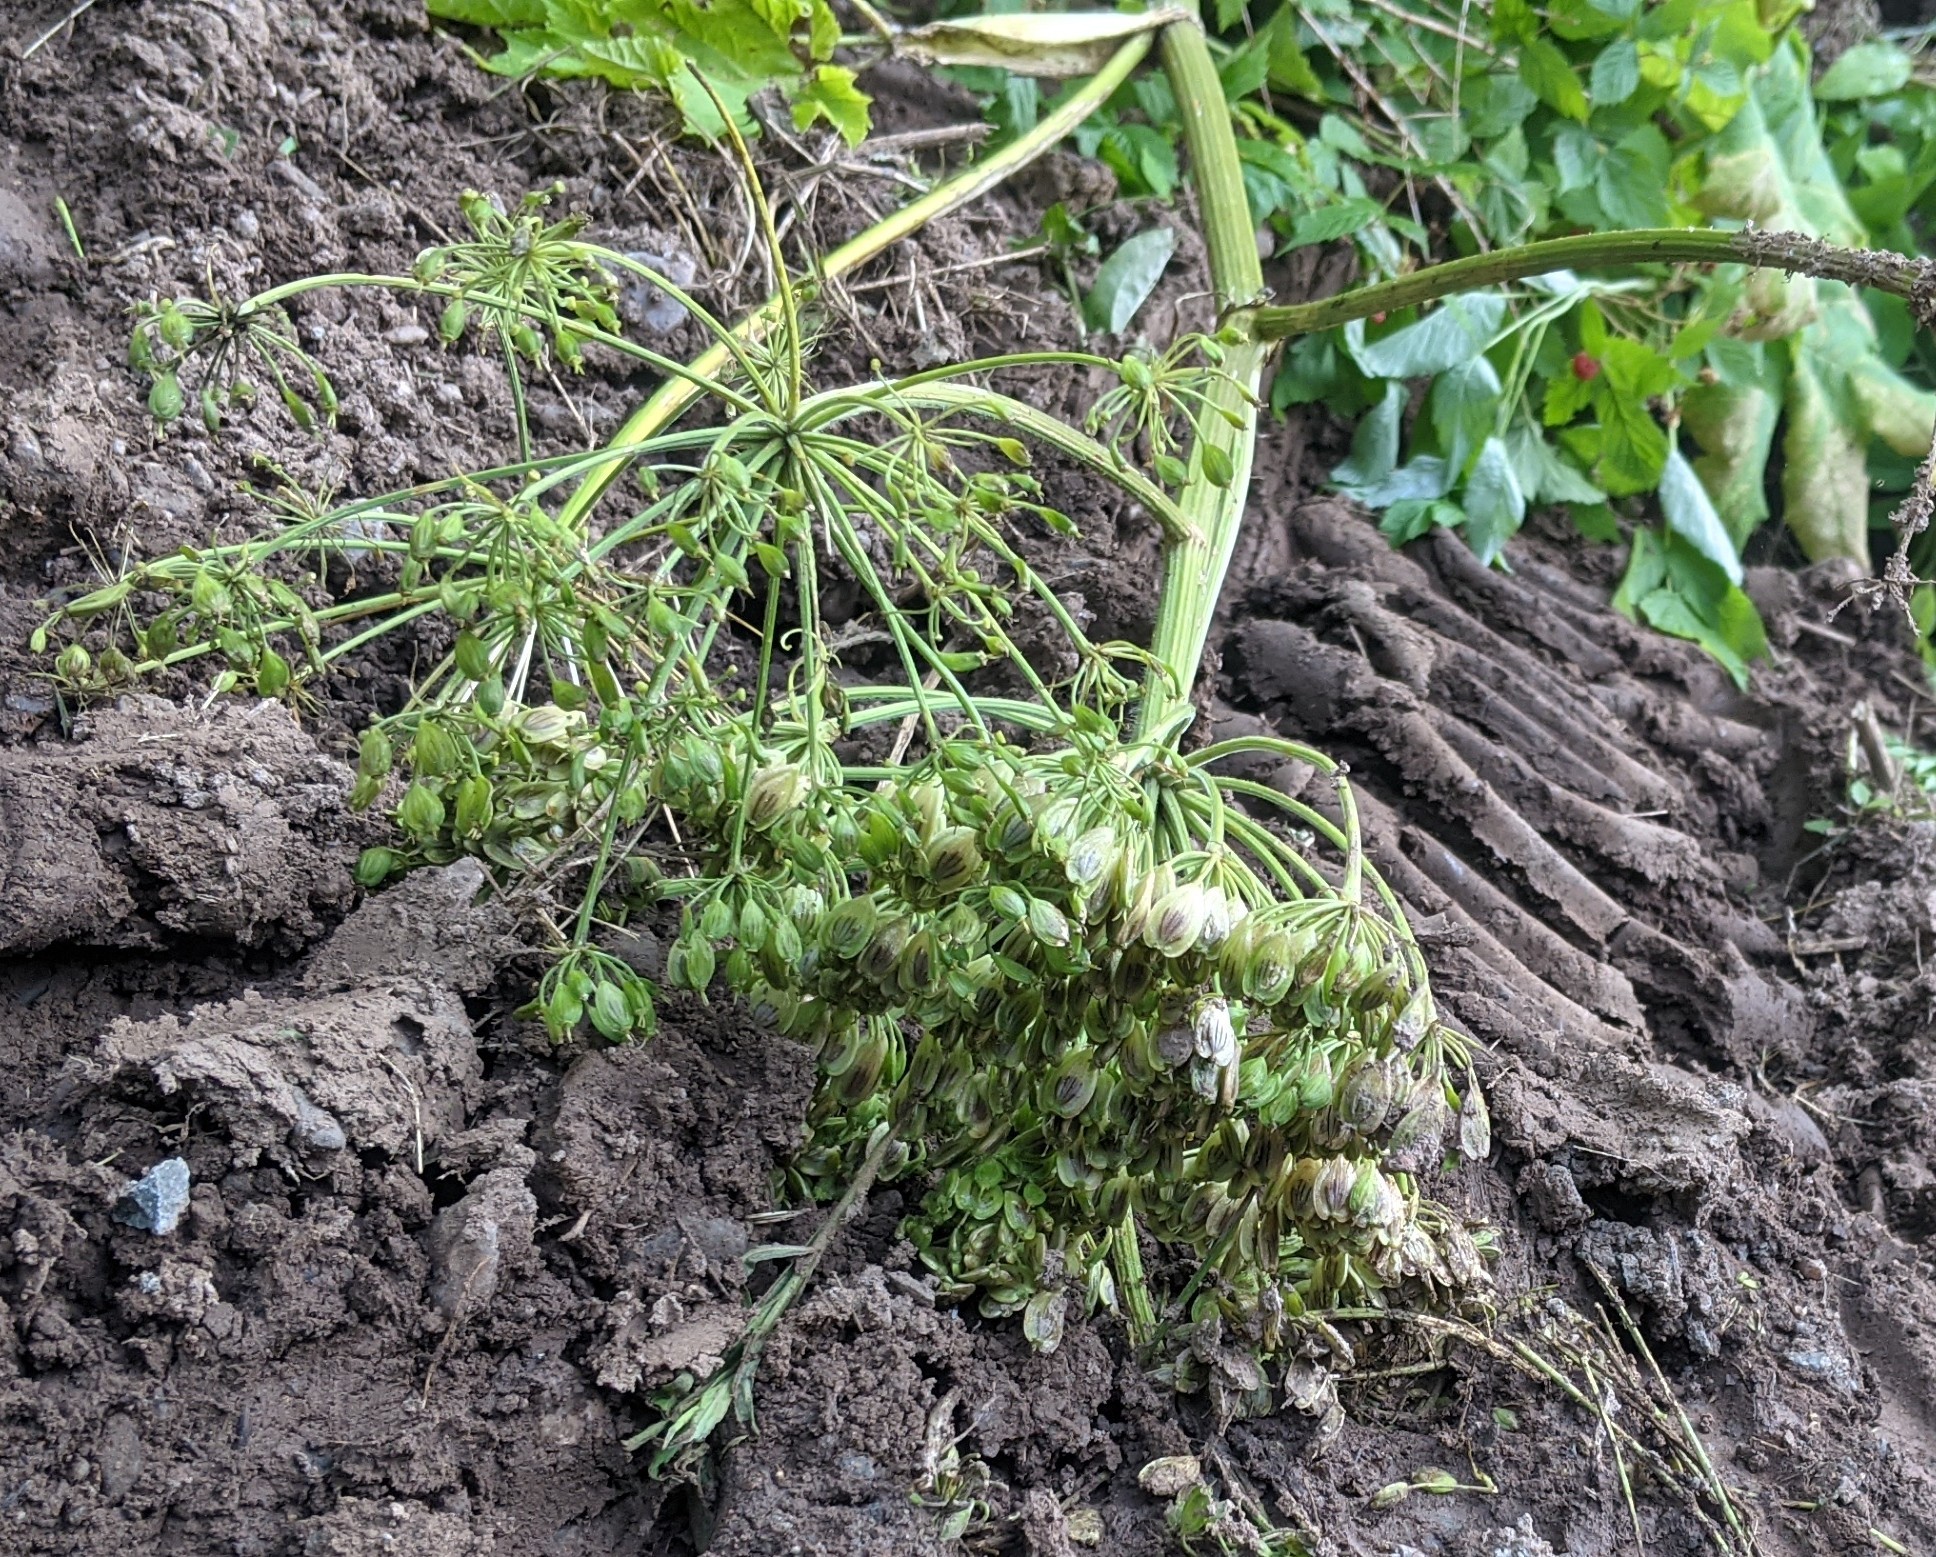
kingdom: Plantae
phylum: Tracheophyta
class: Magnoliopsida
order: Apiales
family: Apiaceae
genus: Heracleum
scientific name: Heracleum maximum
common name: American cow parsnip
